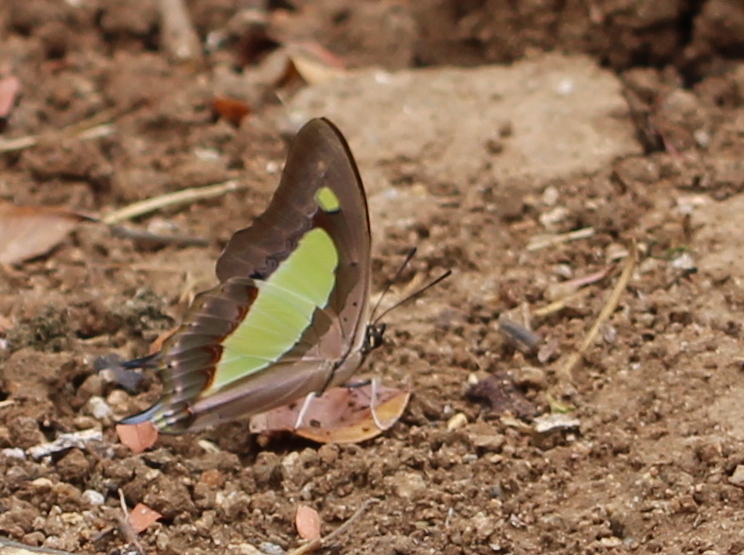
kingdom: Animalia
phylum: Arthropoda
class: Insecta
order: Lepidoptera
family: Nymphalidae
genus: Polyura
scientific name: Polyura
